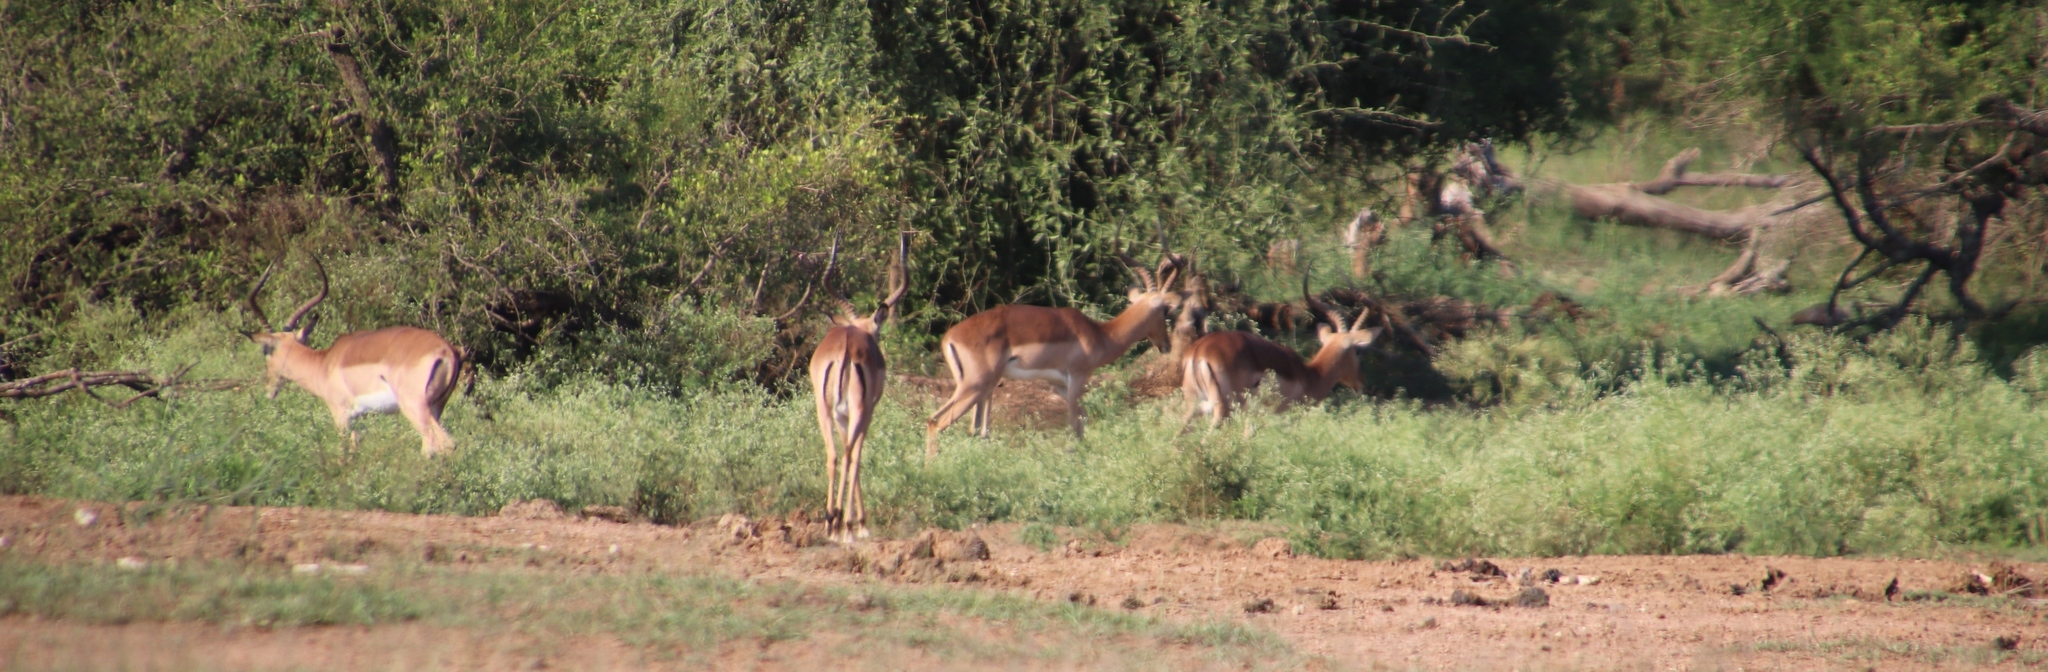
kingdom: Animalia
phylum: Chordata
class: Mammalia
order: Artiodactyla
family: Bovidae
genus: Aepyceros
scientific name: Aepyceros melampus
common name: Impala
